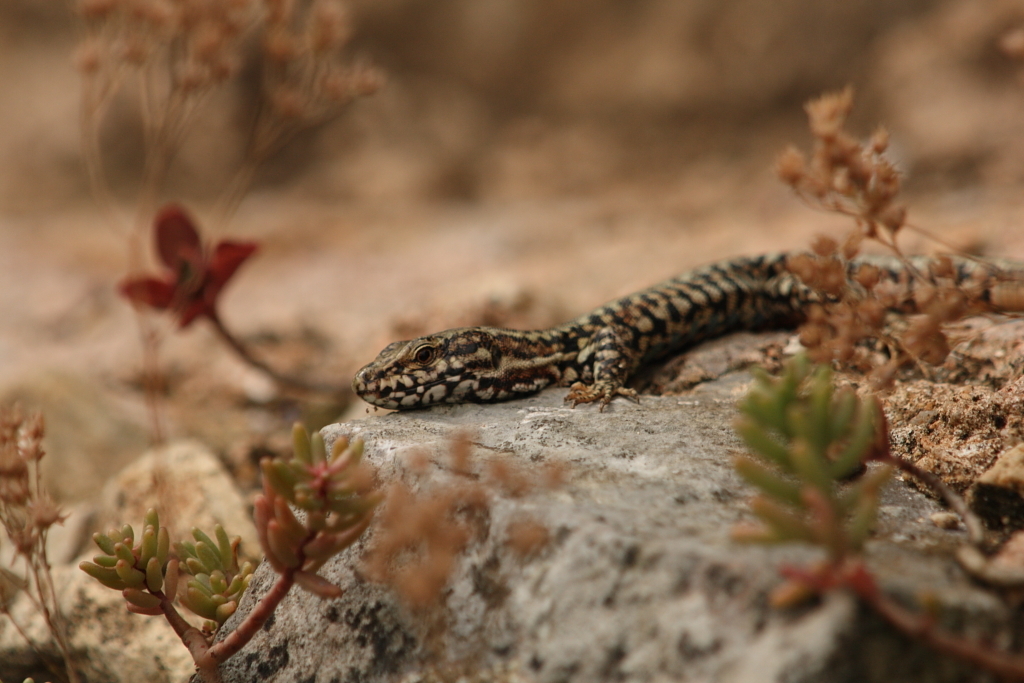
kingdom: Animalia
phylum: Chordata
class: Squamata
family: Lacertidae
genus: Podarcis
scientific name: Podarcis muralis
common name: Common wall lizard
